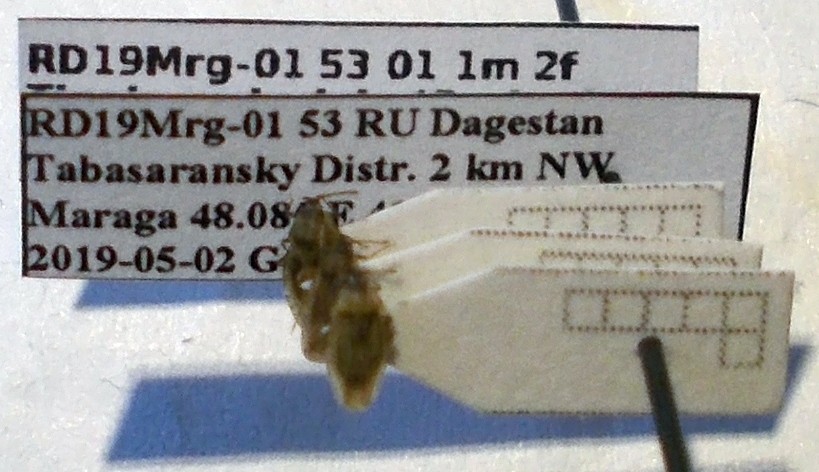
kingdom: Animalia
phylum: Arthropoda
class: Insecta
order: Hemiptera
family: Tingidae
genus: Tingis
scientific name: Tingis auriculata
